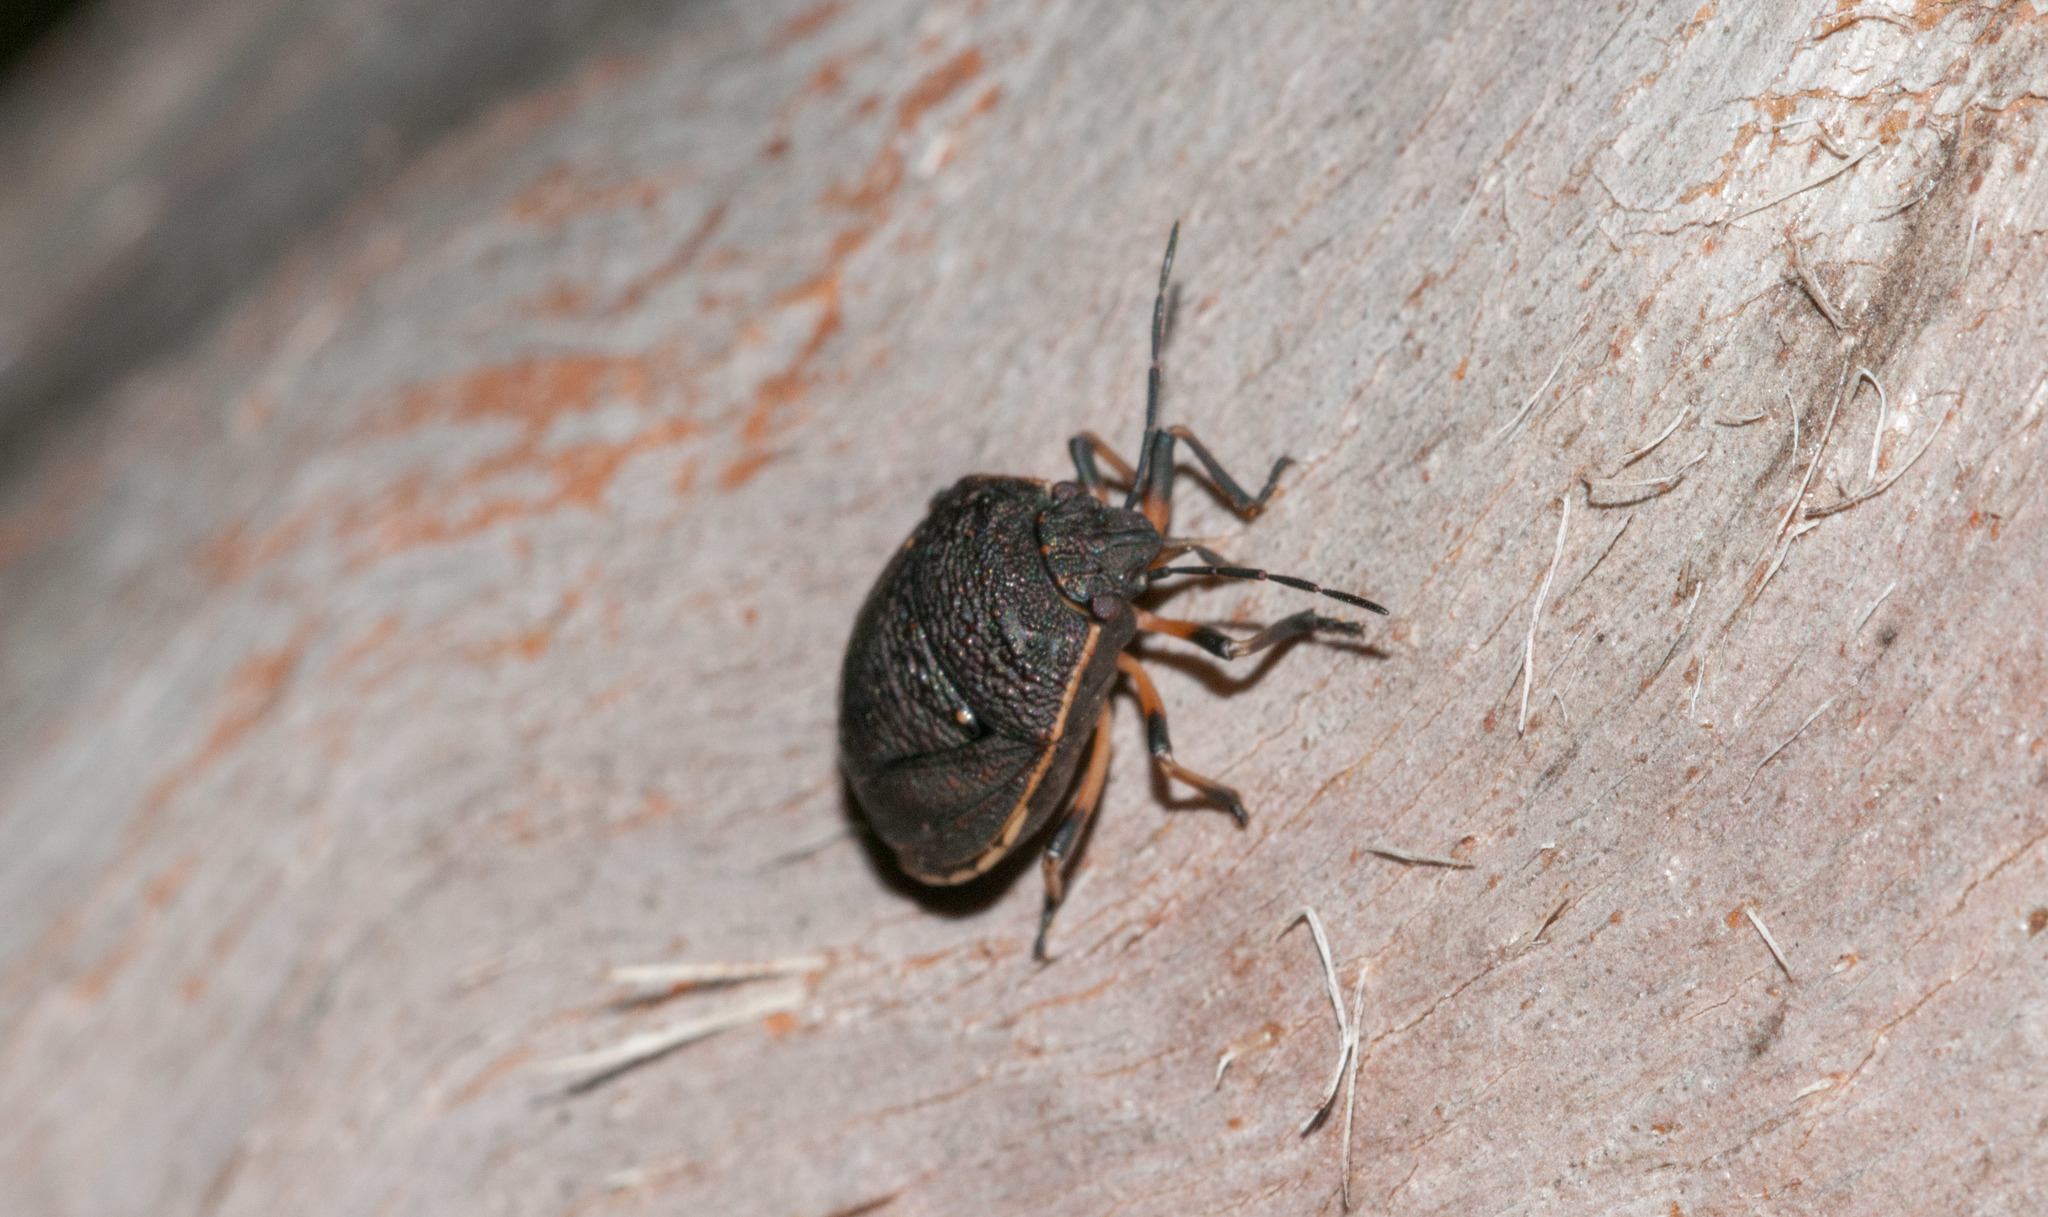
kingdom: Animalia
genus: Platycoris
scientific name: Platycoris
